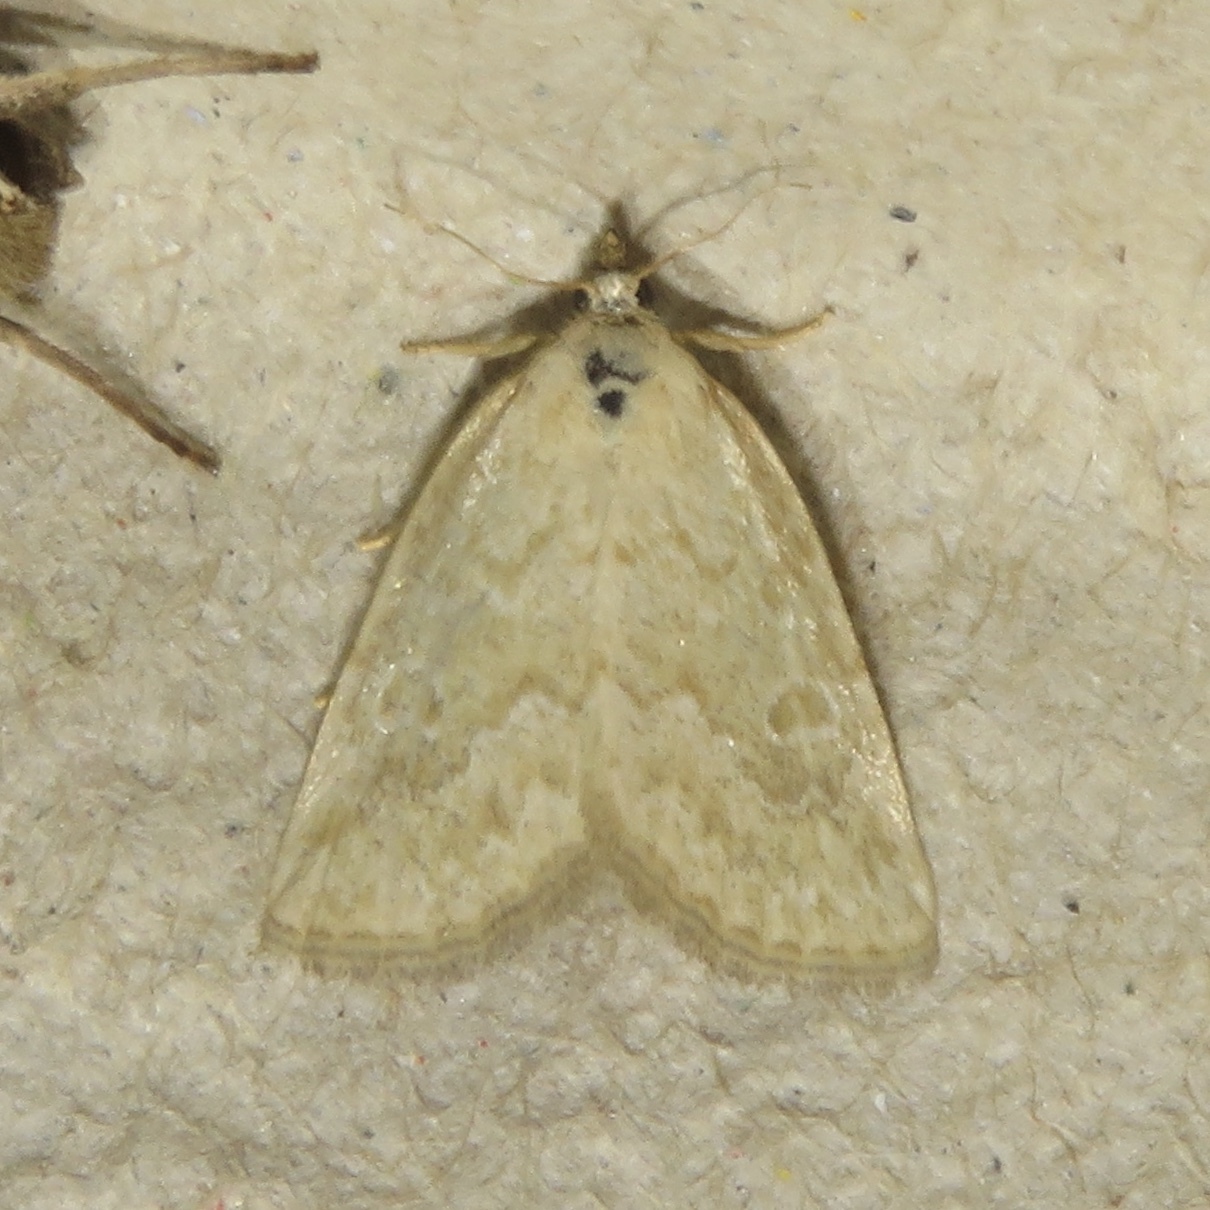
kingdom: Animalia
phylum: Arthropoda
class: Insecta
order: Lepidoptera
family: Noctuidae
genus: Protodeltote
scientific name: Protodeltote albidula
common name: Pale glyph
